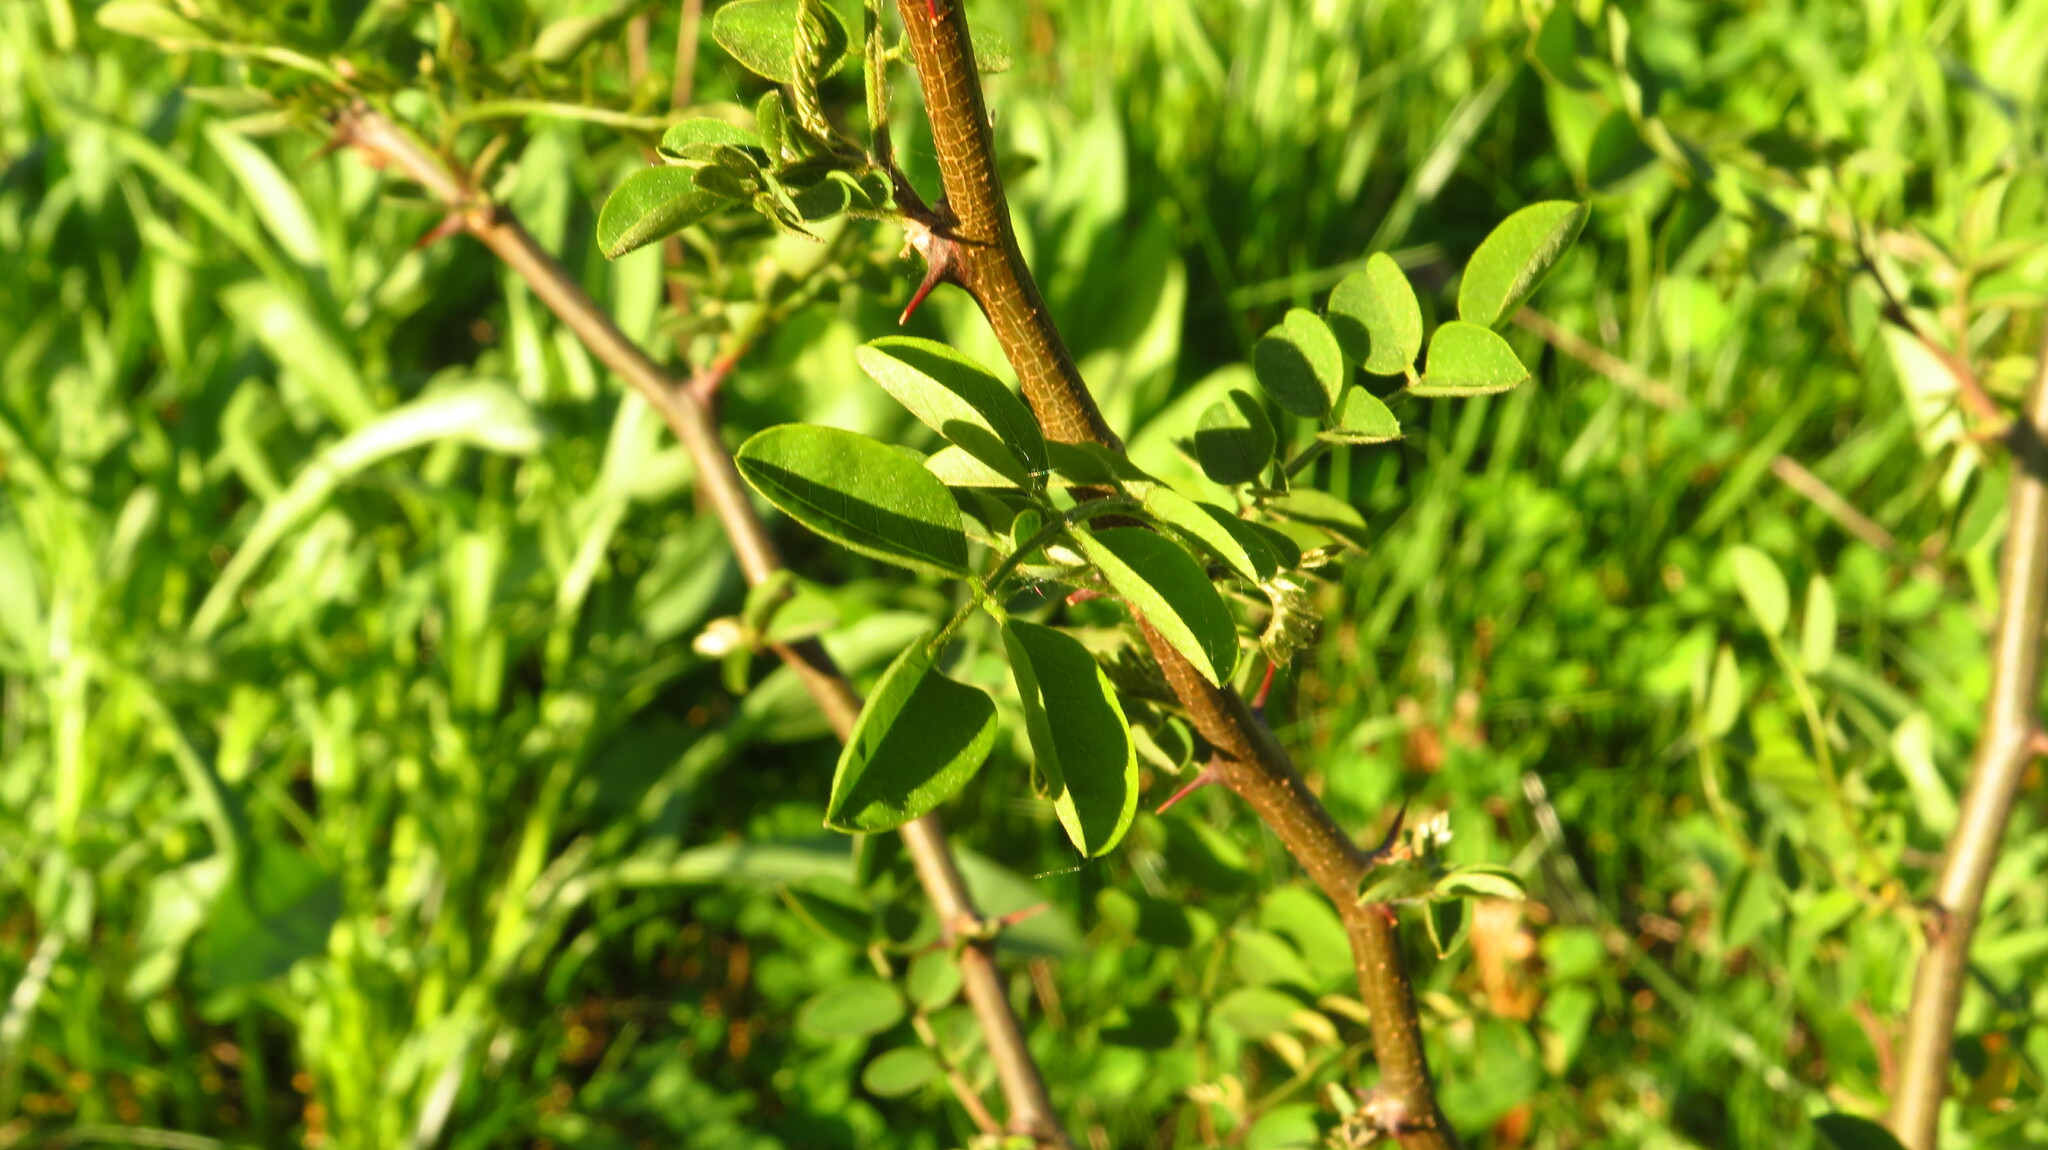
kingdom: Plantae
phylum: Tracheophyta
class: Magnoliopsida
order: Fabales
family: Fabaceae
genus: Robinia
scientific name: Robinia pseudoacacia
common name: Black locust
